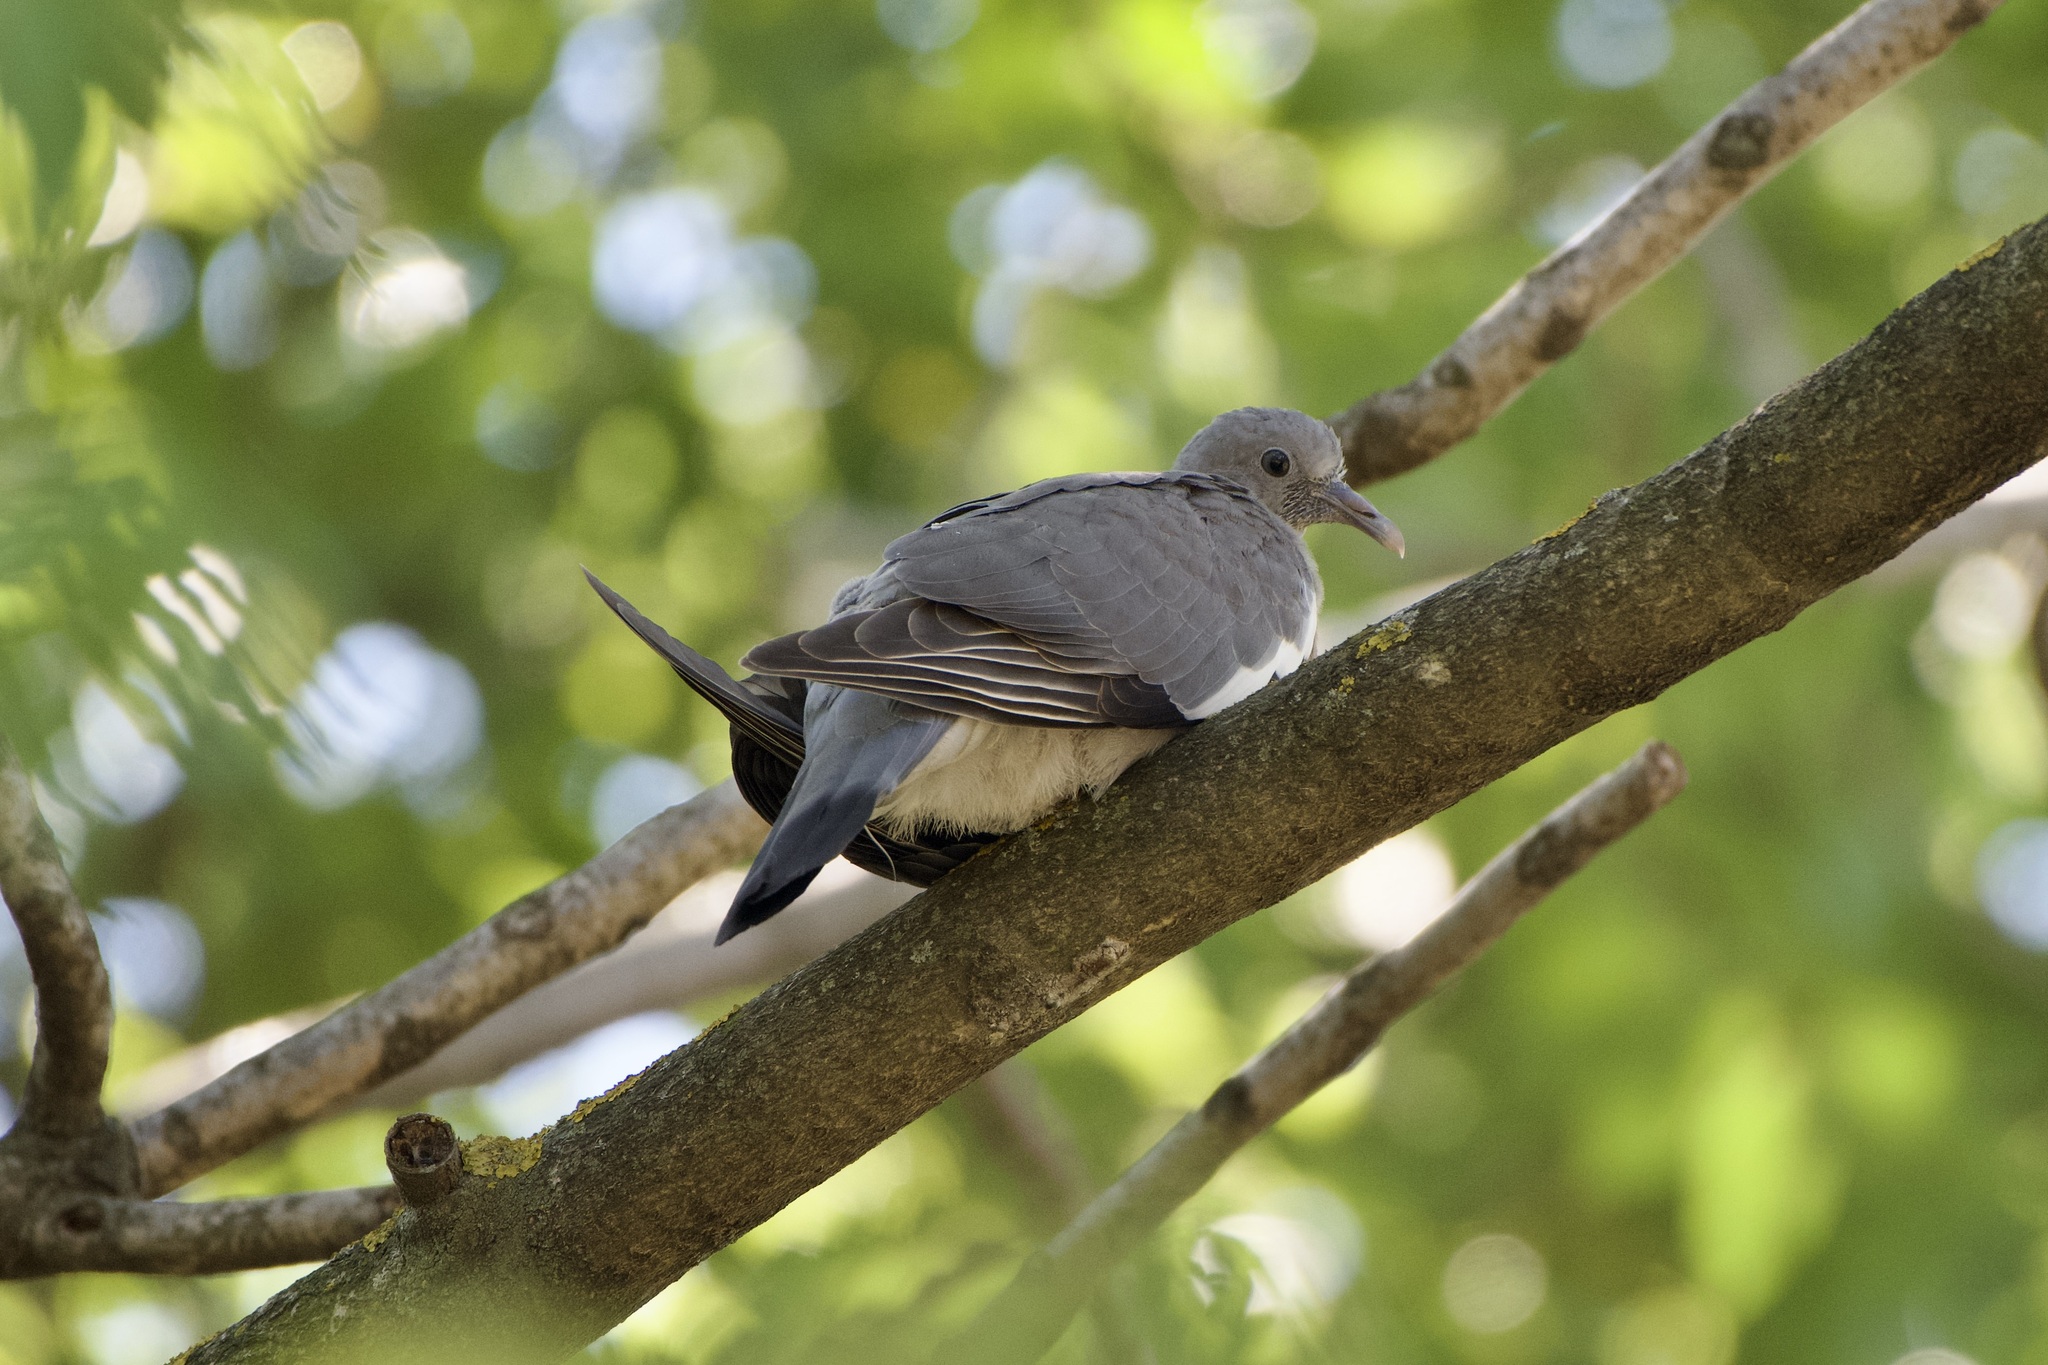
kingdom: Animalia
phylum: Chordata
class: Aves
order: Columbiformes
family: Columbidae
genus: Columba
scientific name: Columba palumbus
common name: Common wood pigeon
